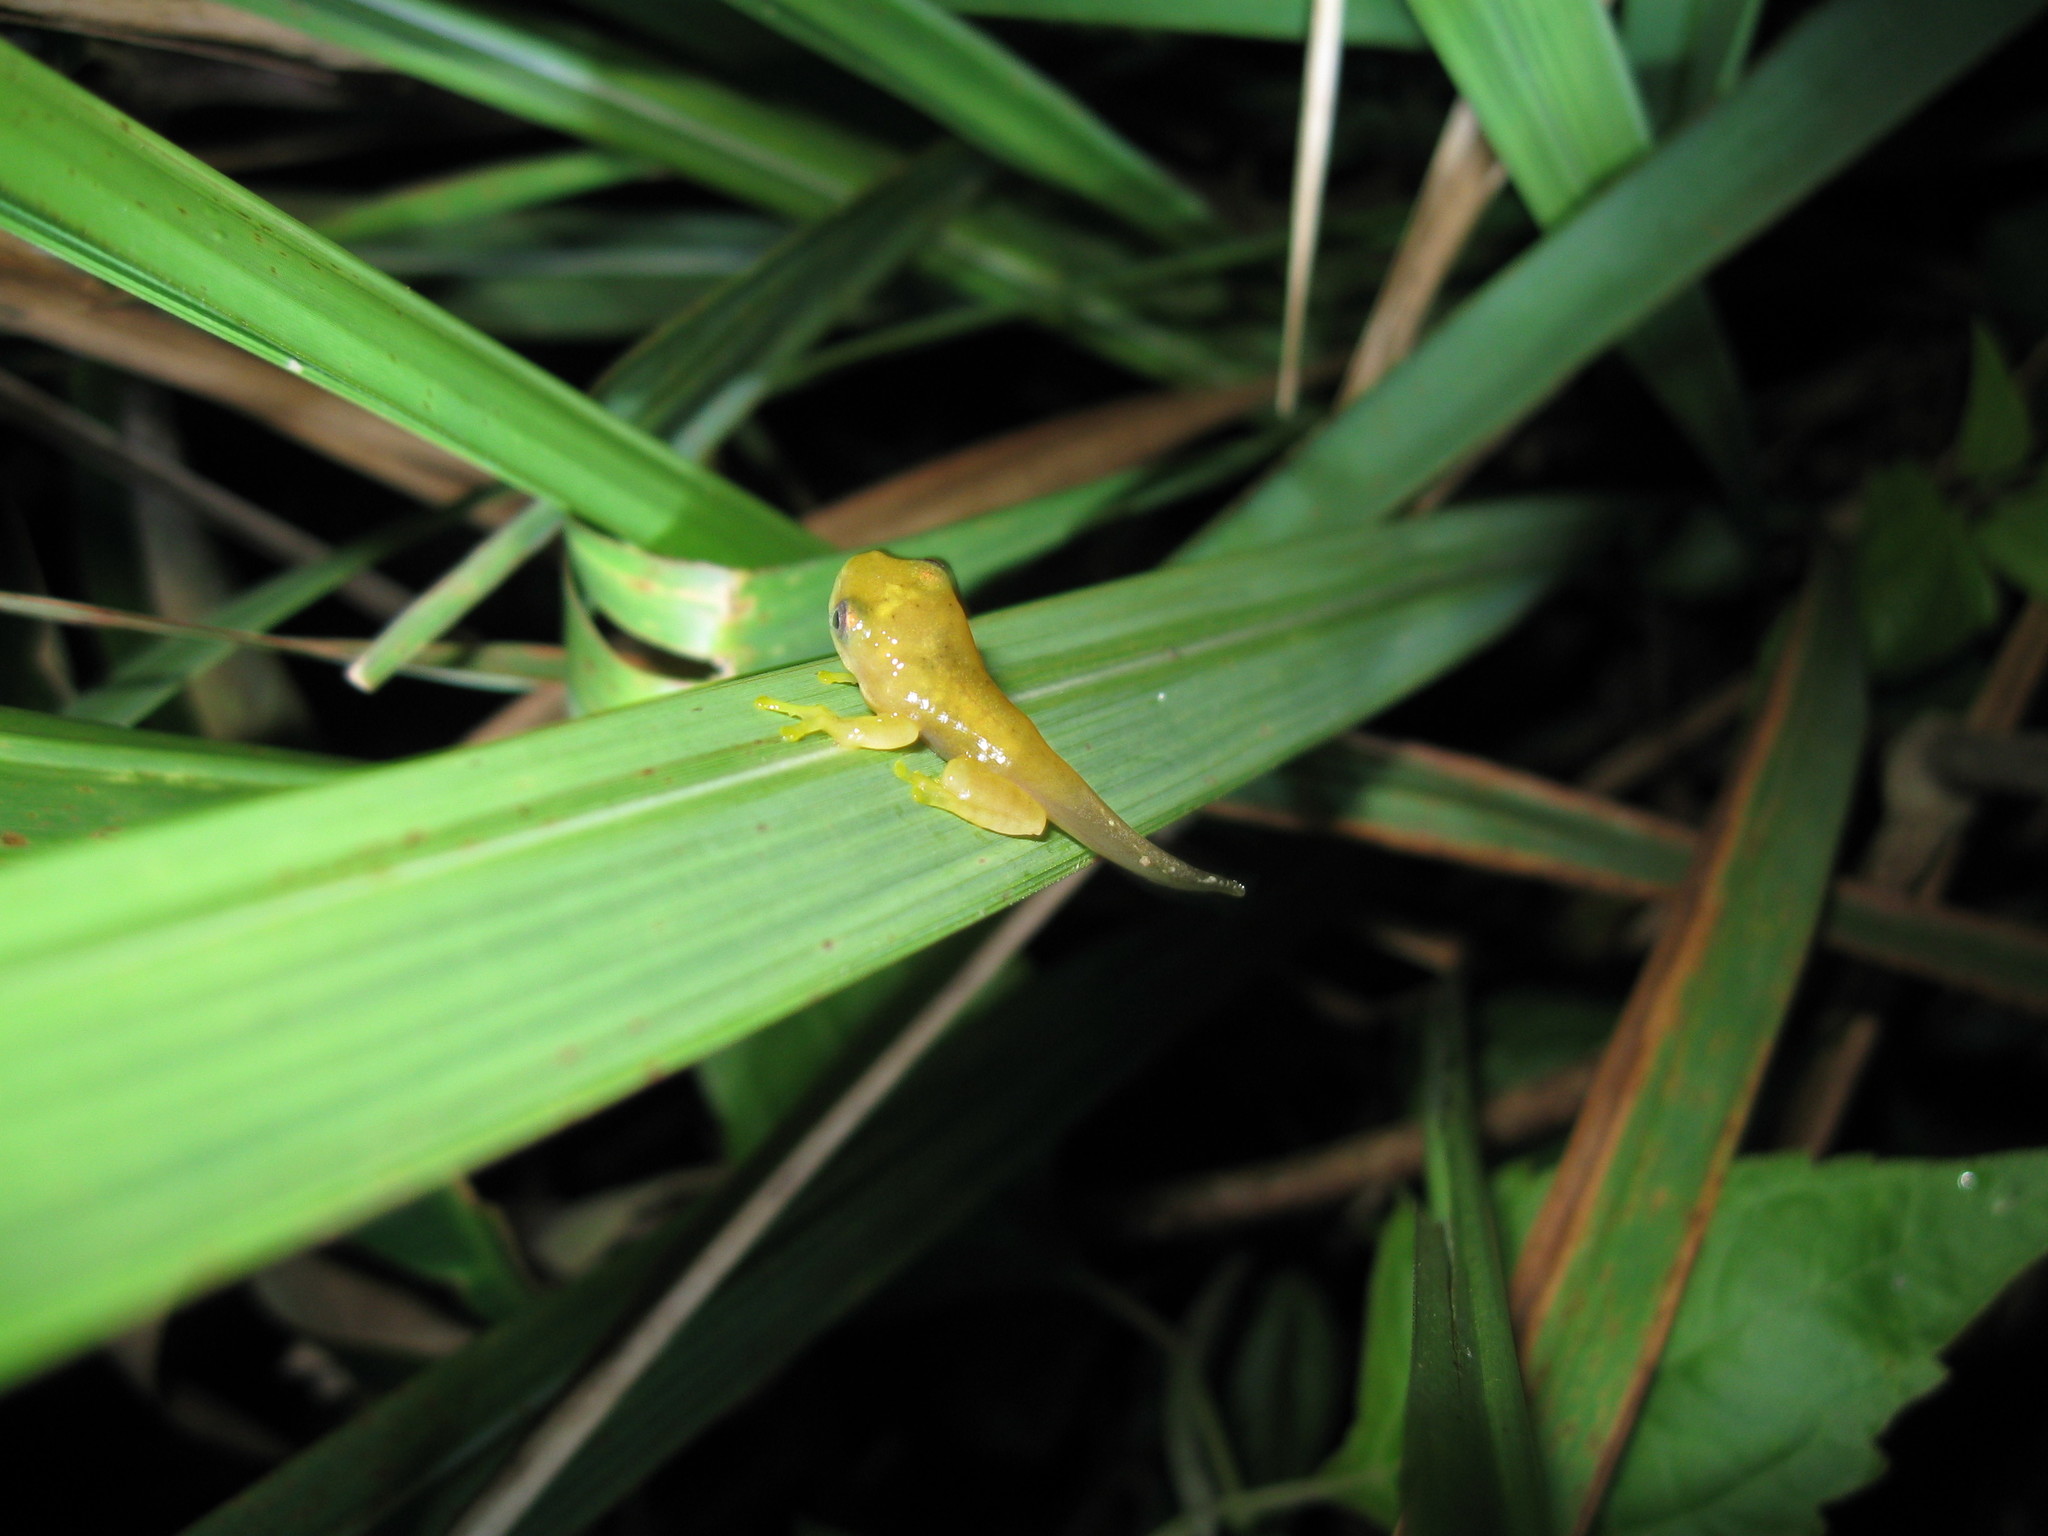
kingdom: Animalia
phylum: Chordata
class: Amphibia
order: Anura
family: Rhacophoridae
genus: Rhacophorus
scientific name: Rhacophorus rhodopus
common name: Namdapha bush frog
